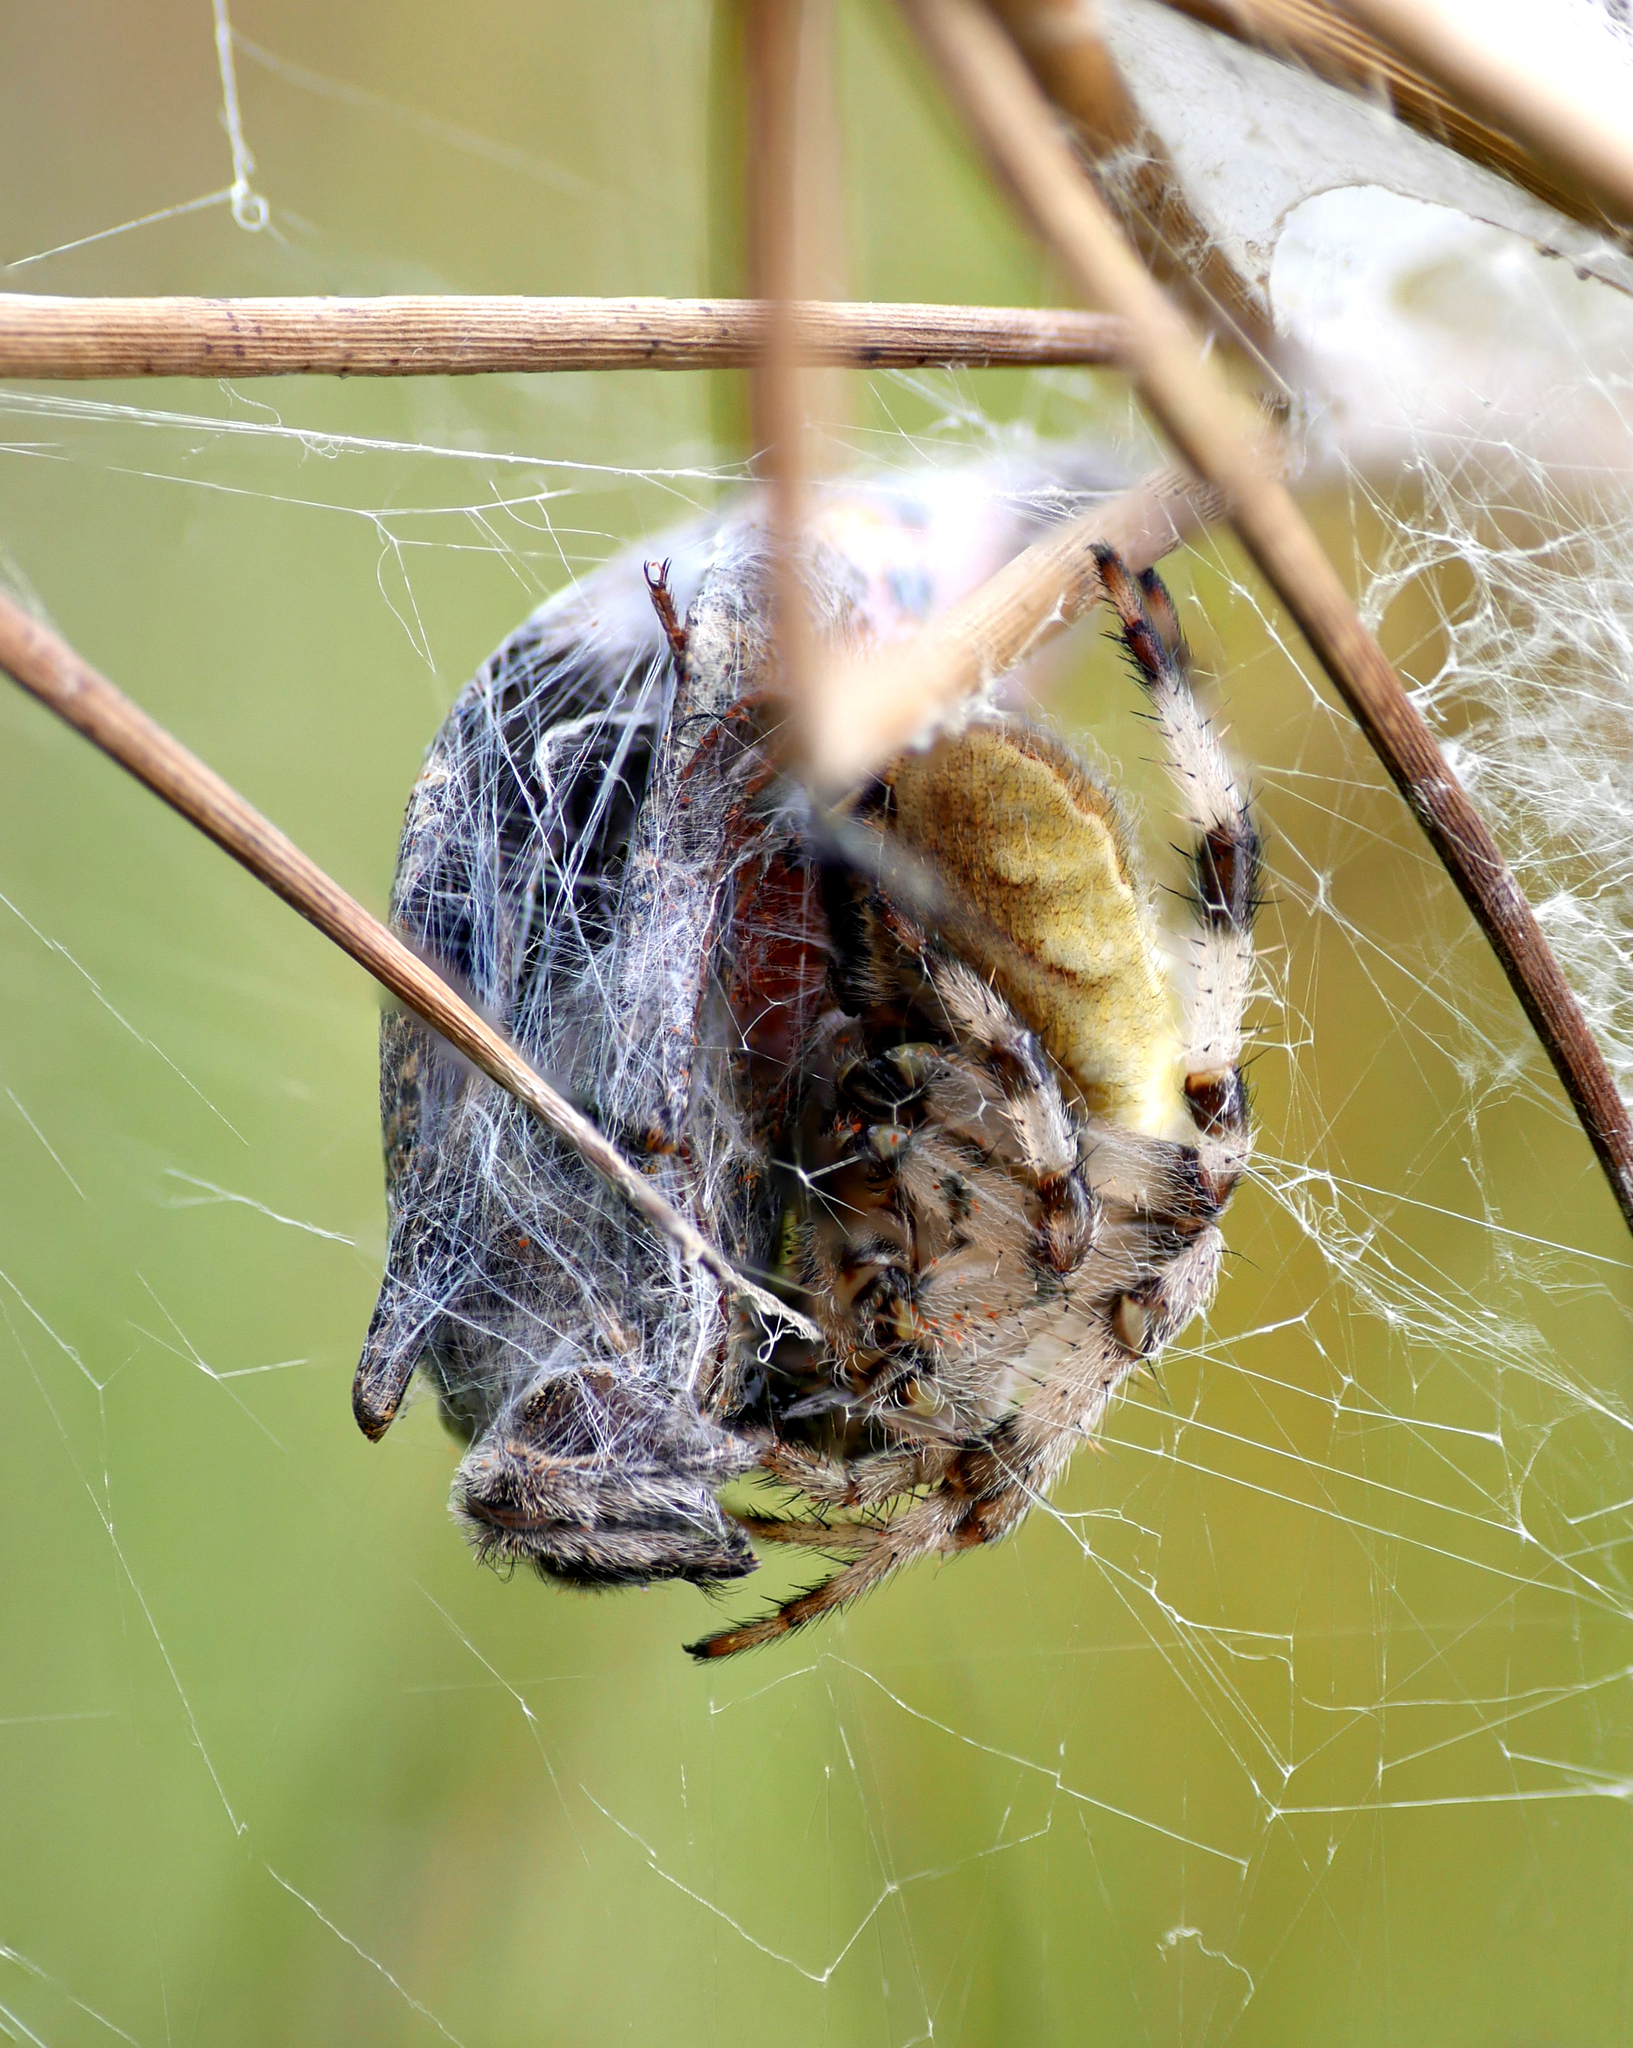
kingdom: Animalia
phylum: Arthropoda
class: Arachnida
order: Araneae
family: Araneidae
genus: Araneus
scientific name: Araneus quadratus
